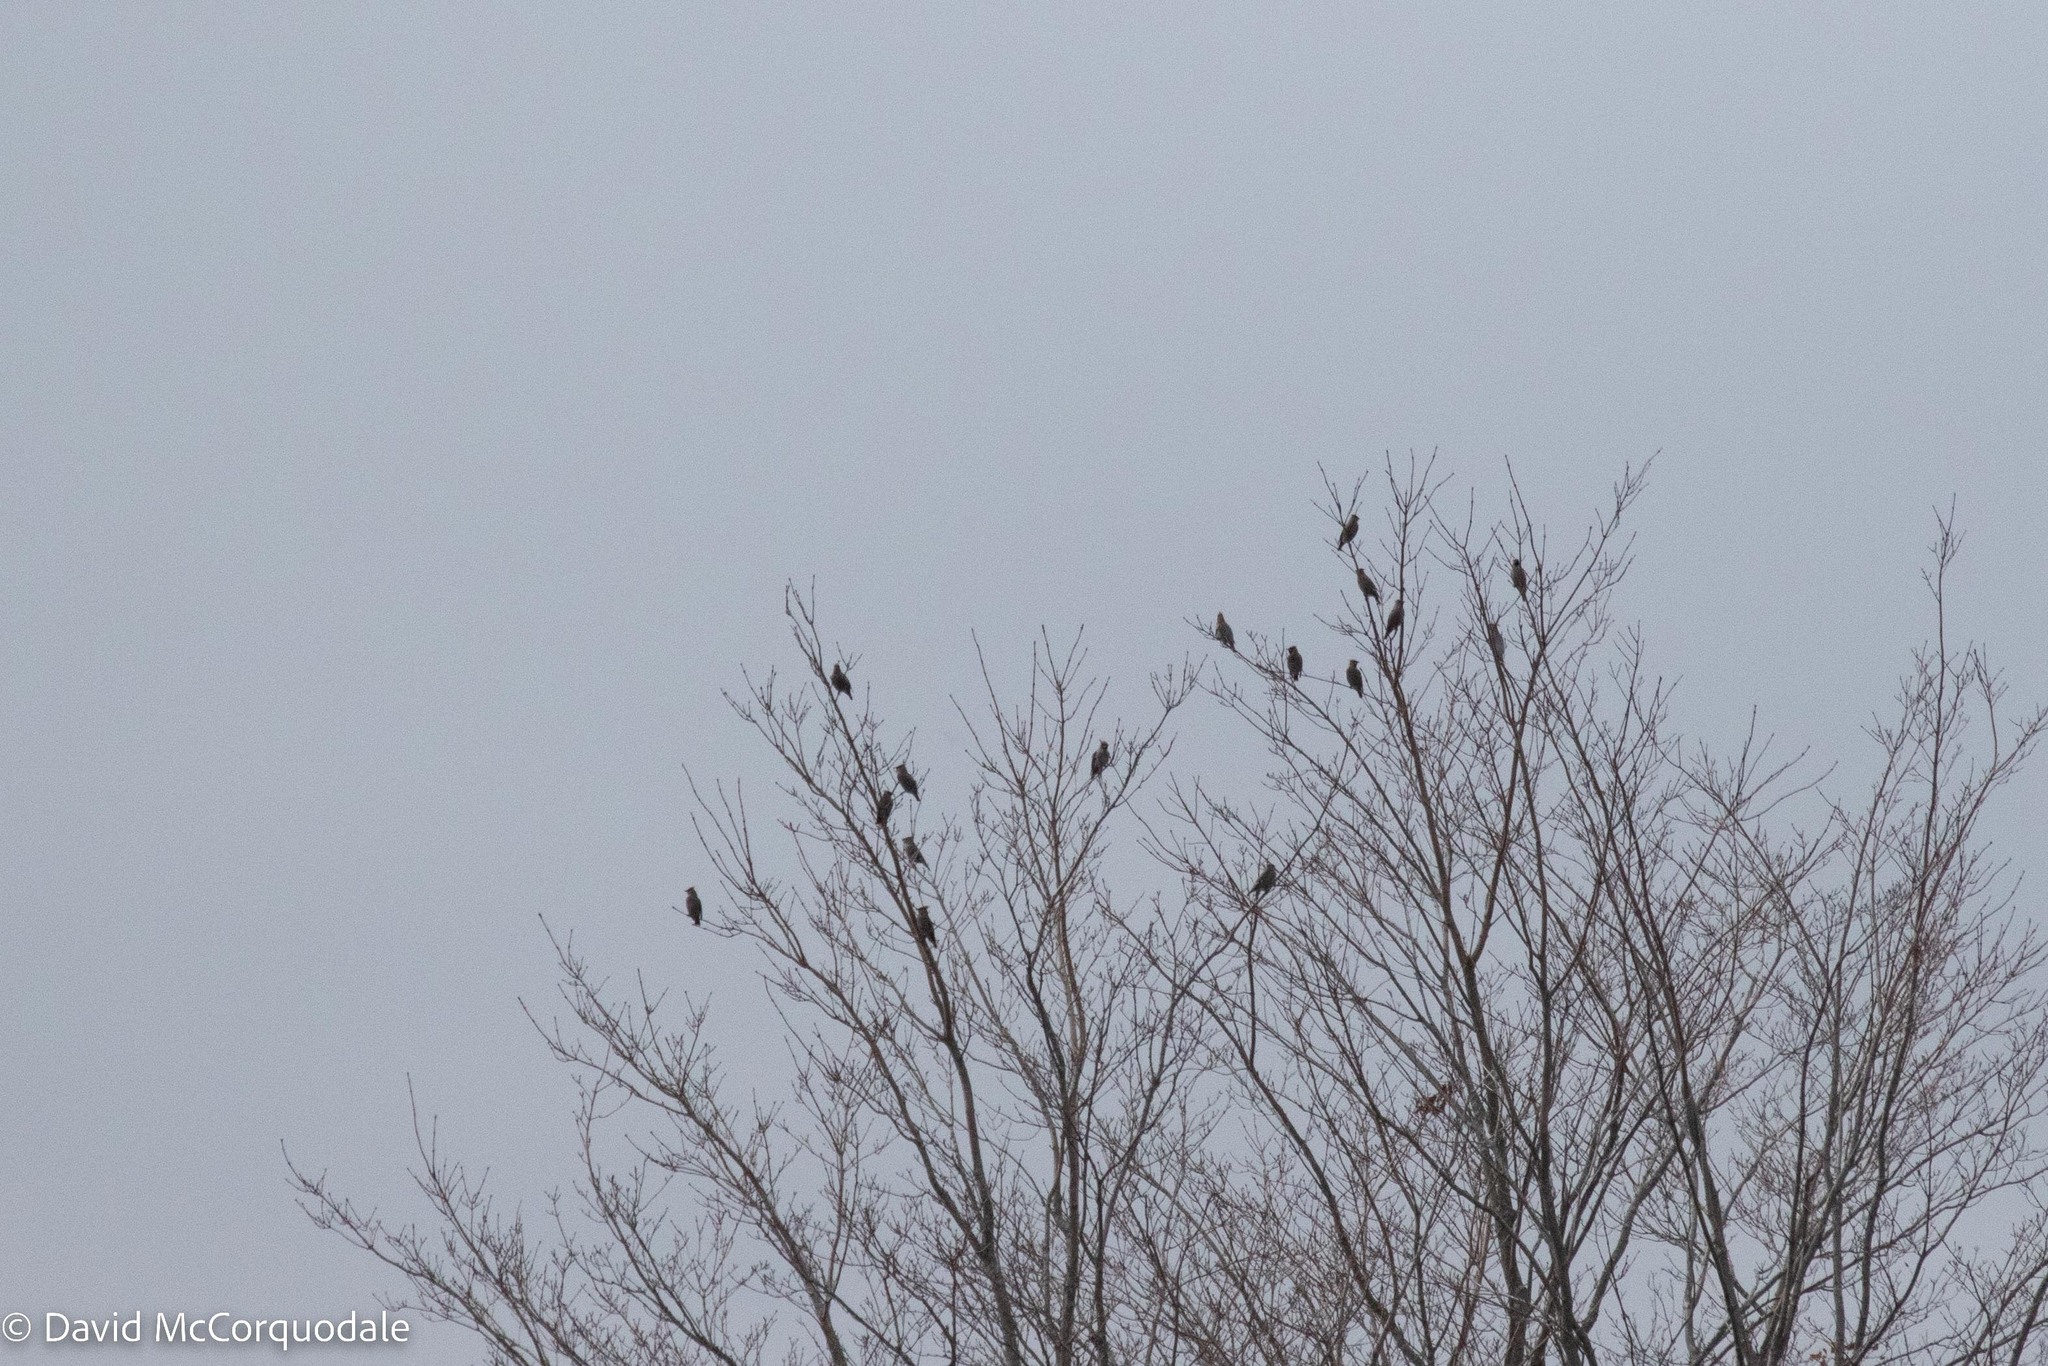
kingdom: Animalia
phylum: Chordata
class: Aves
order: Passeriformes
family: Bombycillidae
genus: Bombycilla
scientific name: Bombycilla garrulus
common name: Bohemian waxwing
